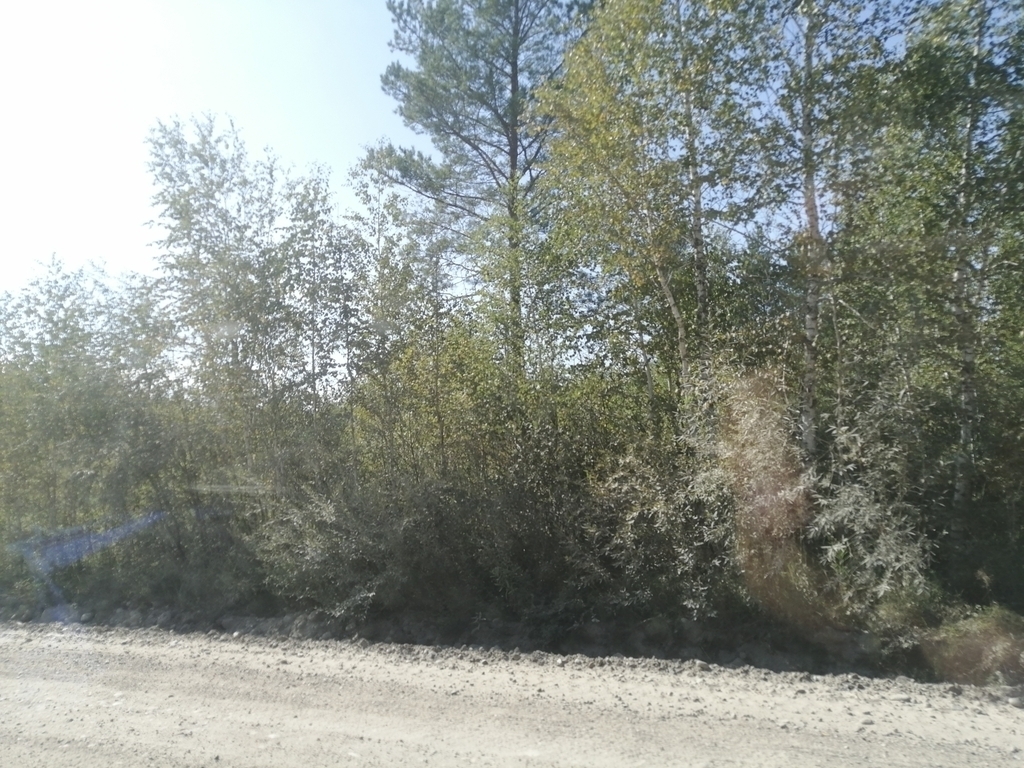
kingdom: Plantae
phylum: Tracheophyta
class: Pinopsida
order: Pinales
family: Pinaceae
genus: Pinus
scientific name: Pinus sylvestris
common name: Scots pine
